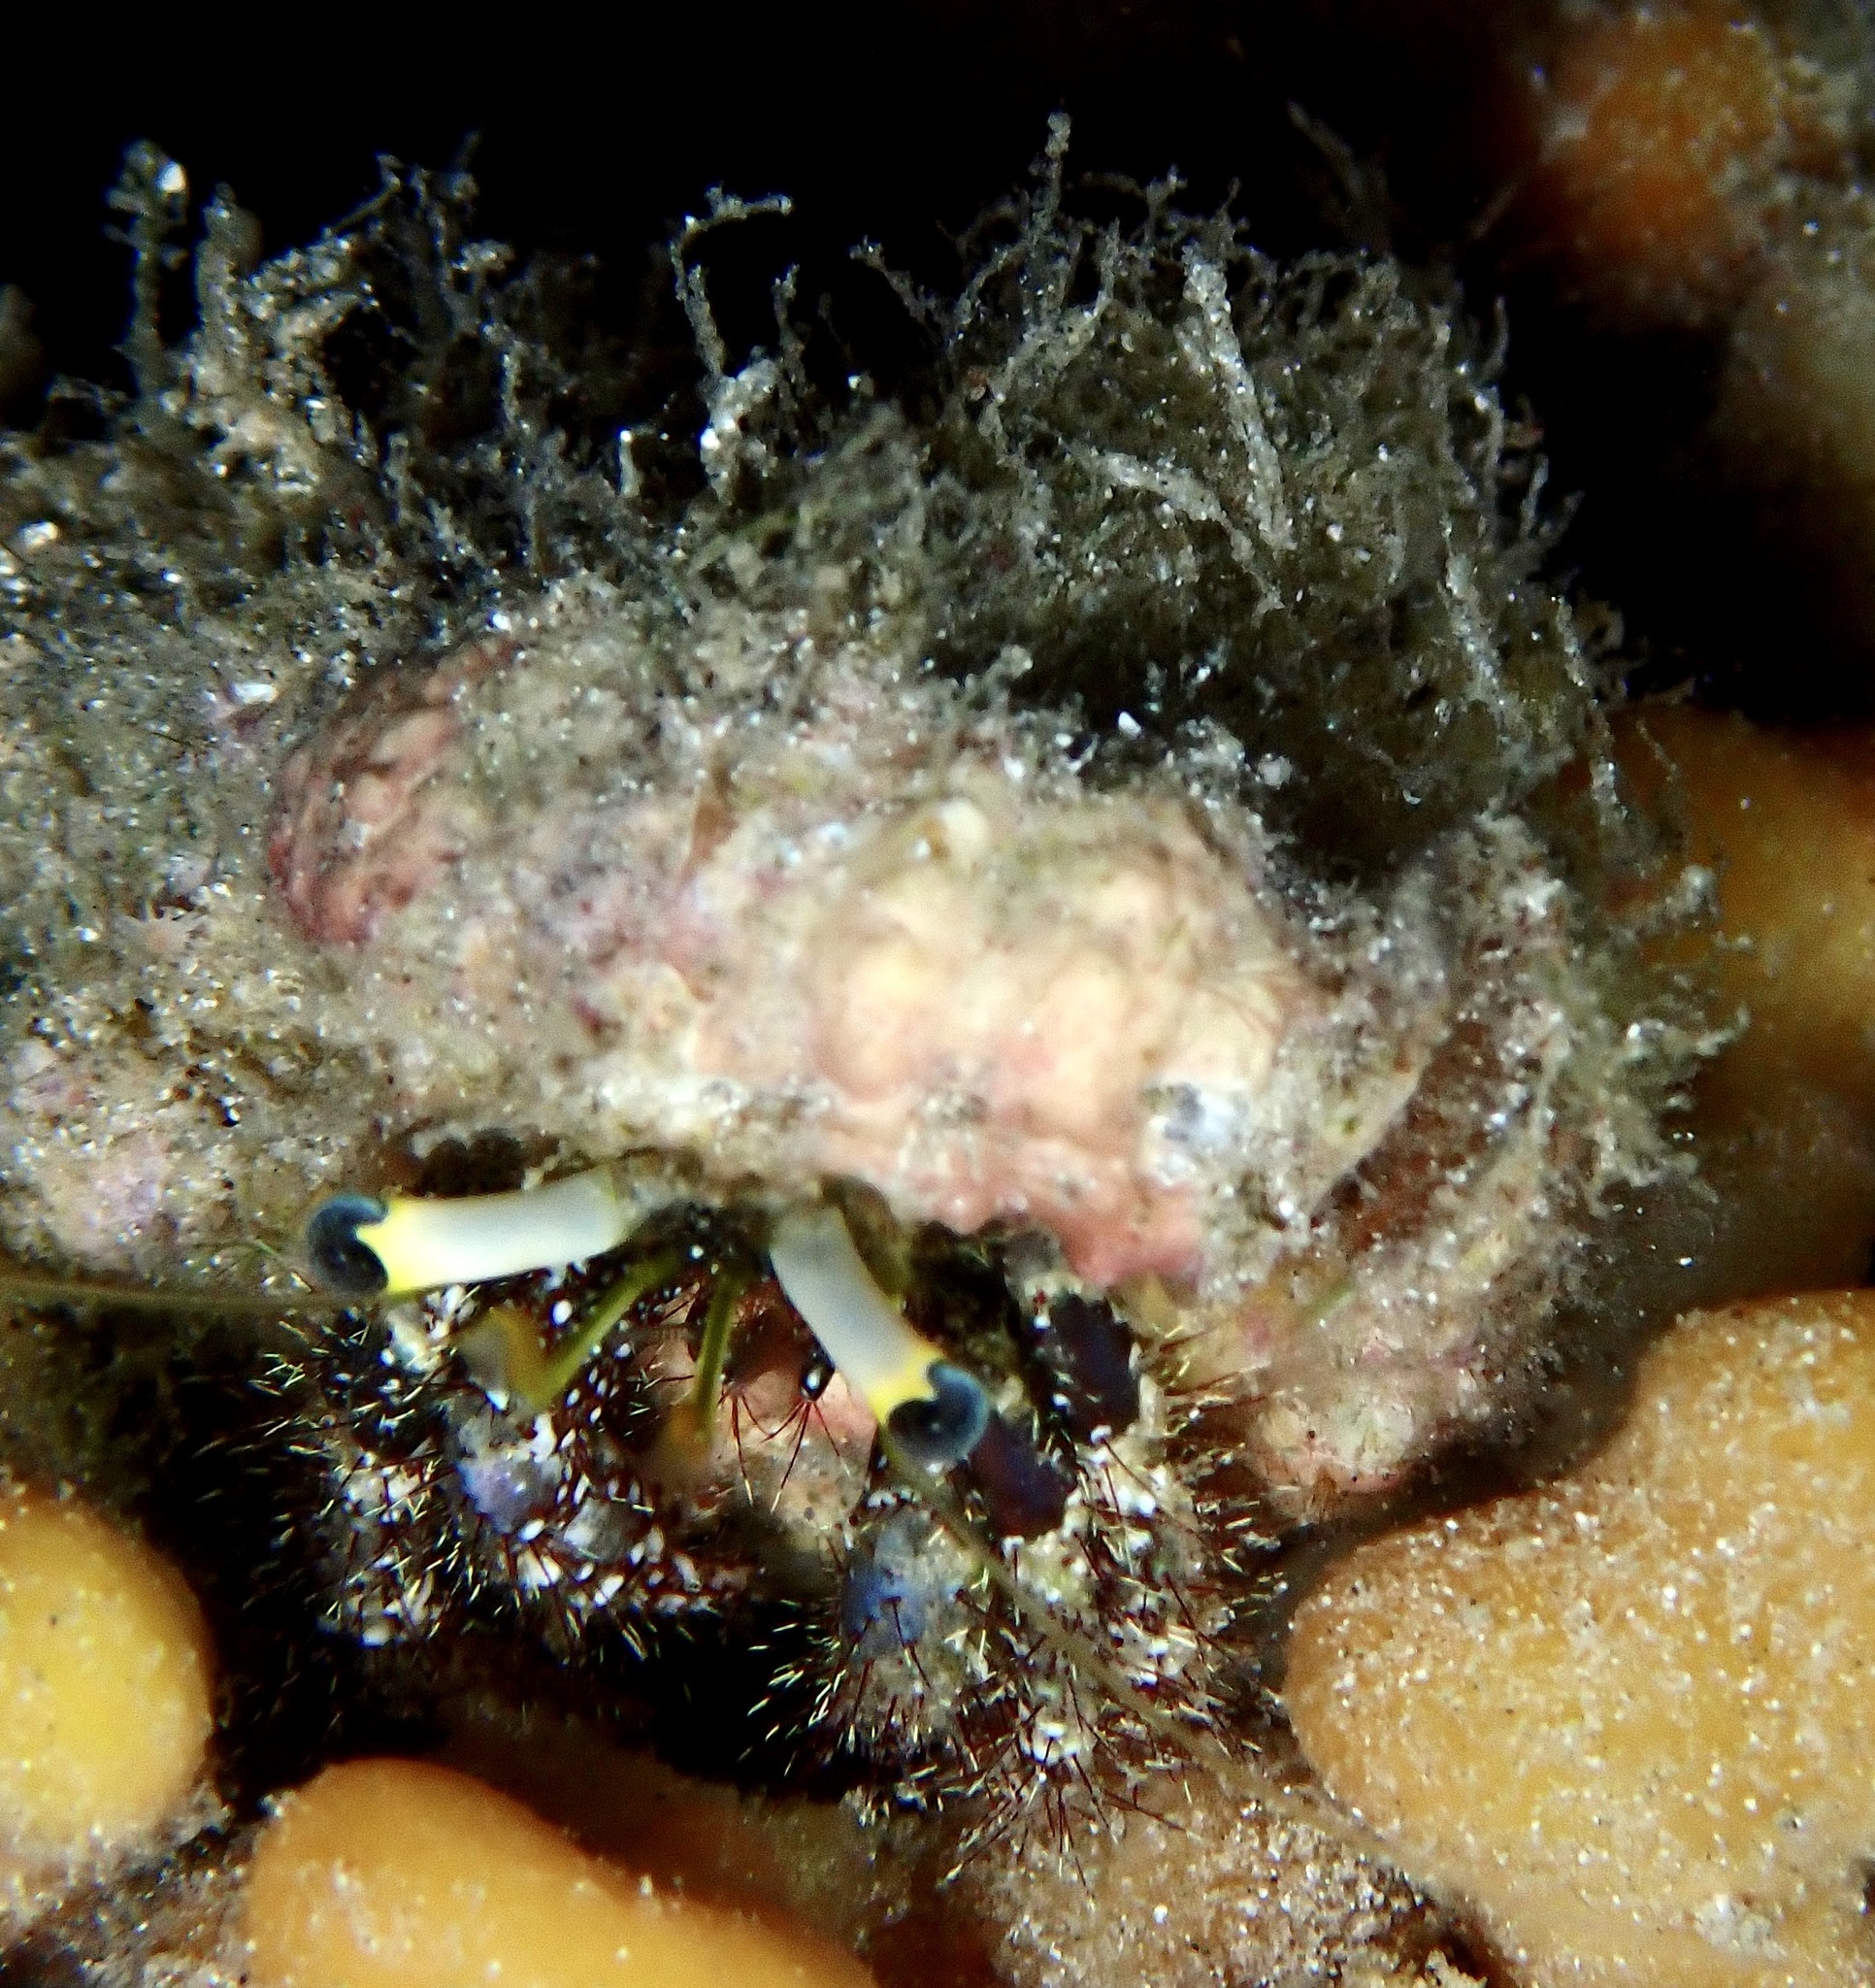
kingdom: Animalia
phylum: Arthropoda
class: Malacostraca
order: Decapoda
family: Diogenidae
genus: Dardanus
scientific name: Dardanus lagopodes
